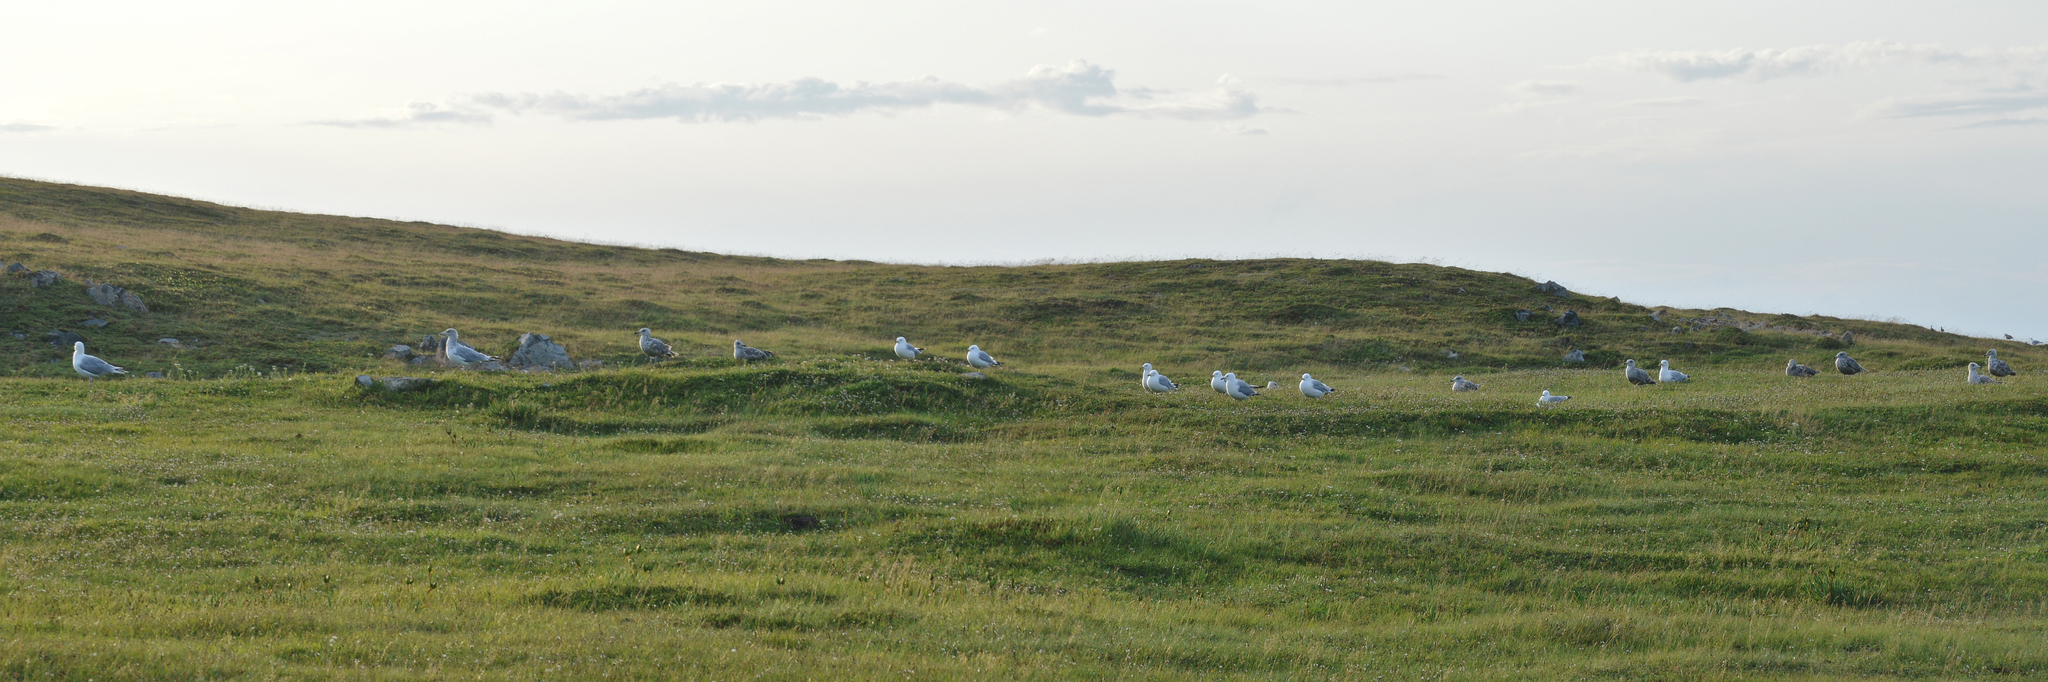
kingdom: Animalia
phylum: Chordata
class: Aves
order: Charadriiformes
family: Laridae
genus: Larus
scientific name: Larus argentatus
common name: Herring gull
